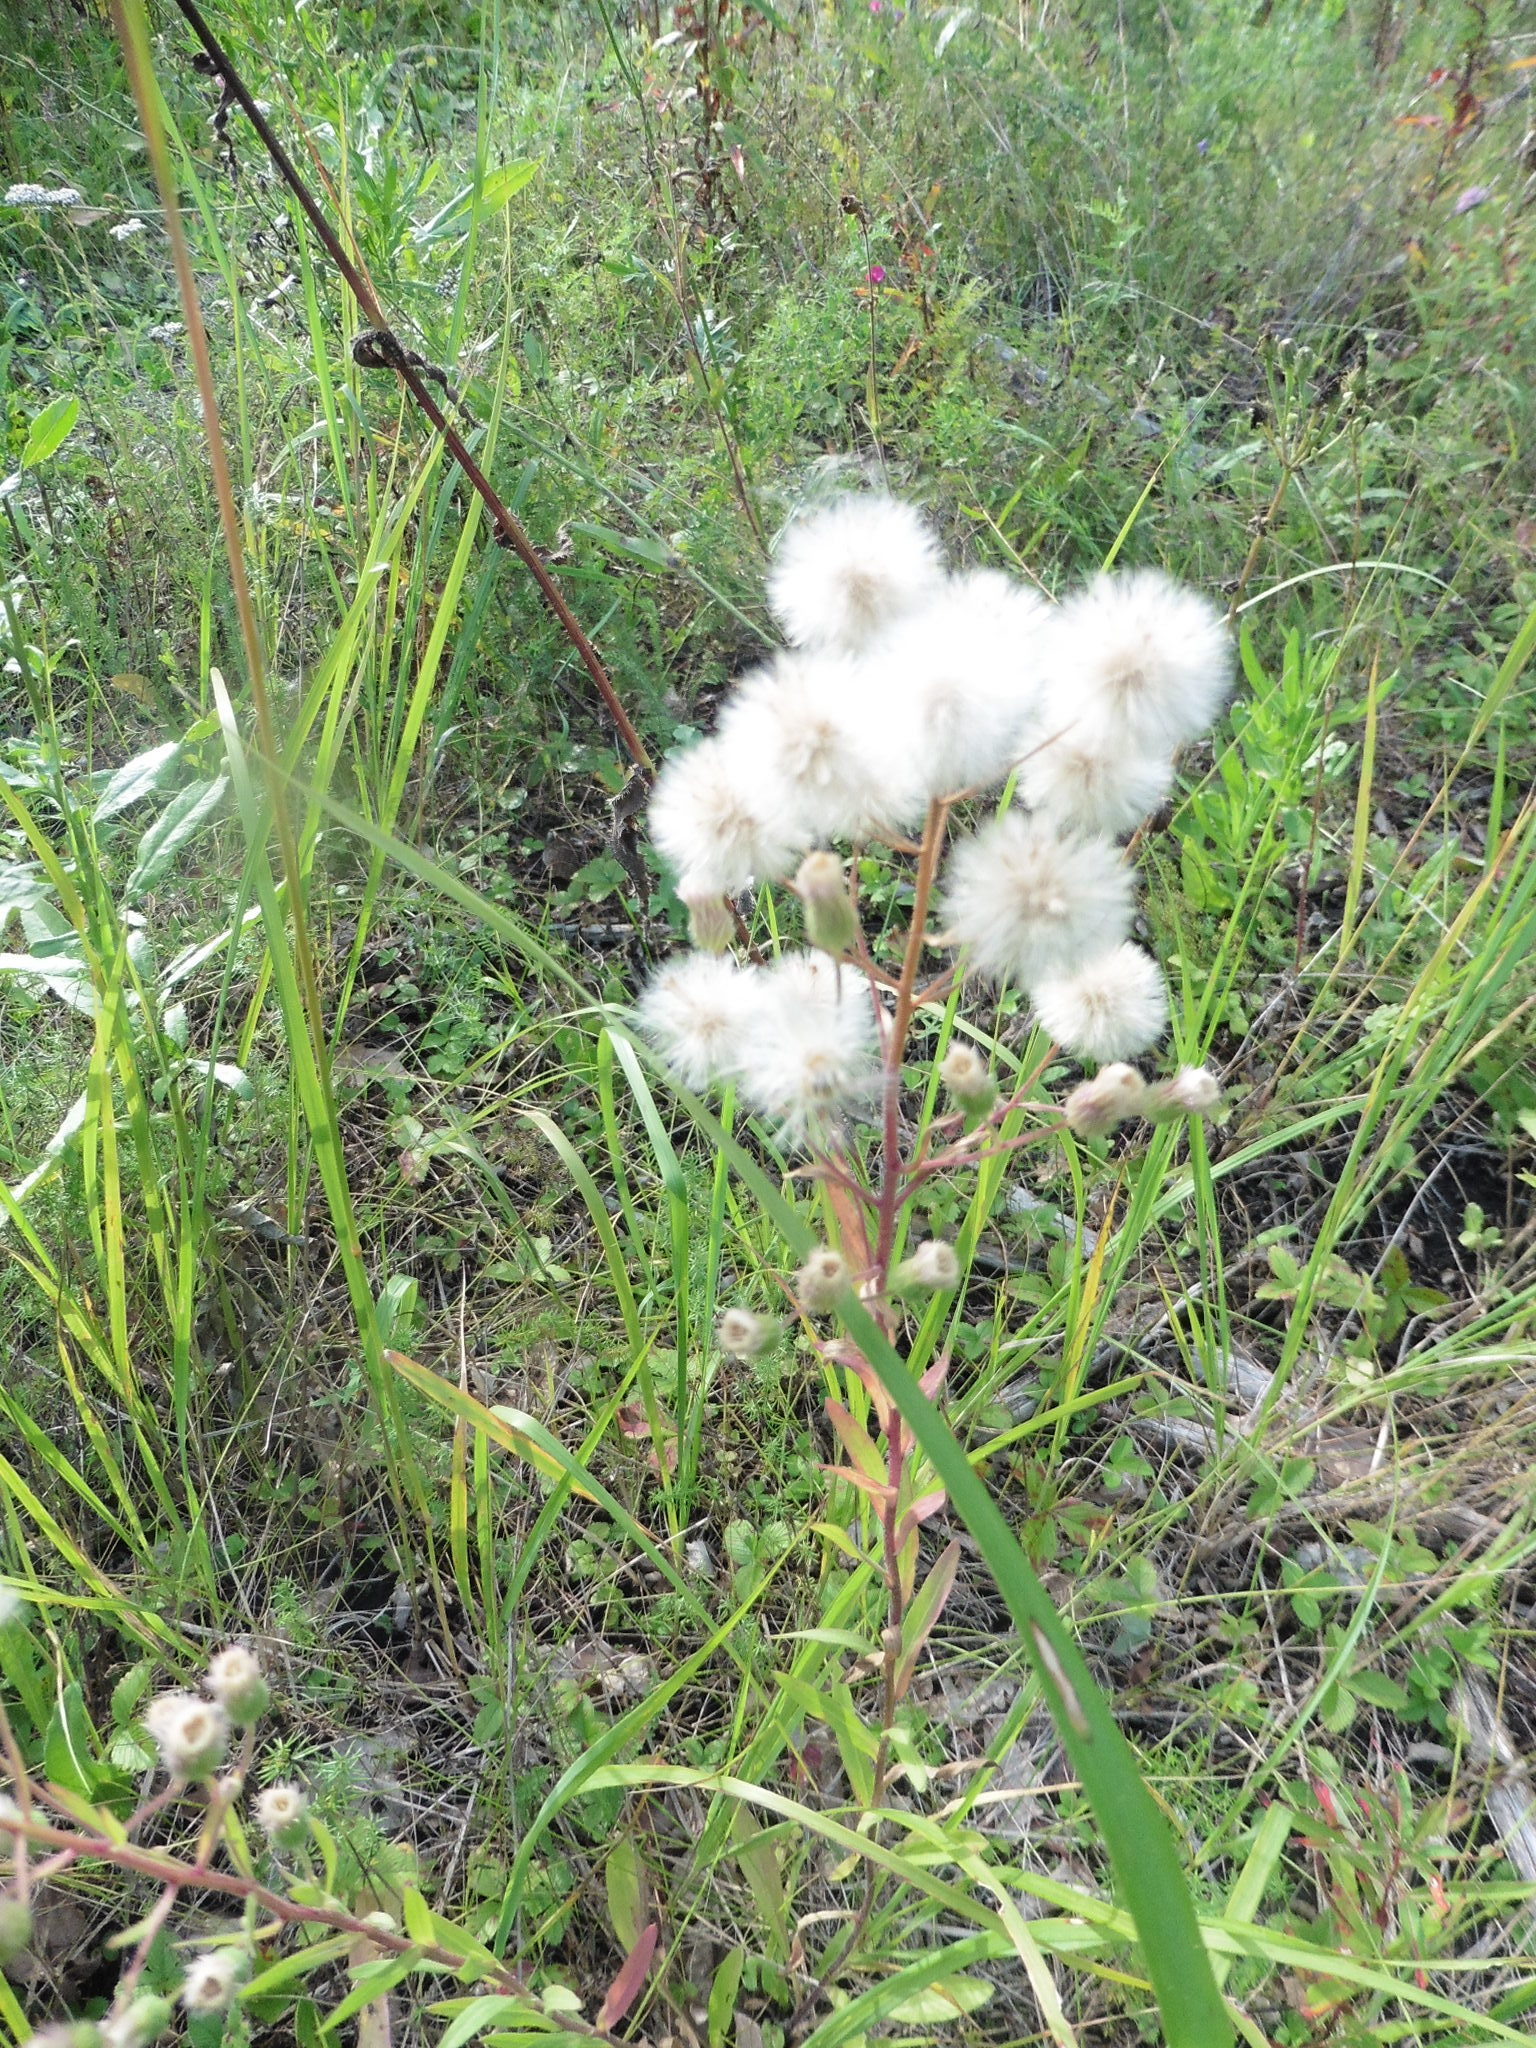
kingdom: Plantae
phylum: Tracheophyta
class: Magnoliopsida
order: Asterales
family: Asteraceae
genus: Erigeron
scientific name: Erigeron acris
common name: Blue fleabane
